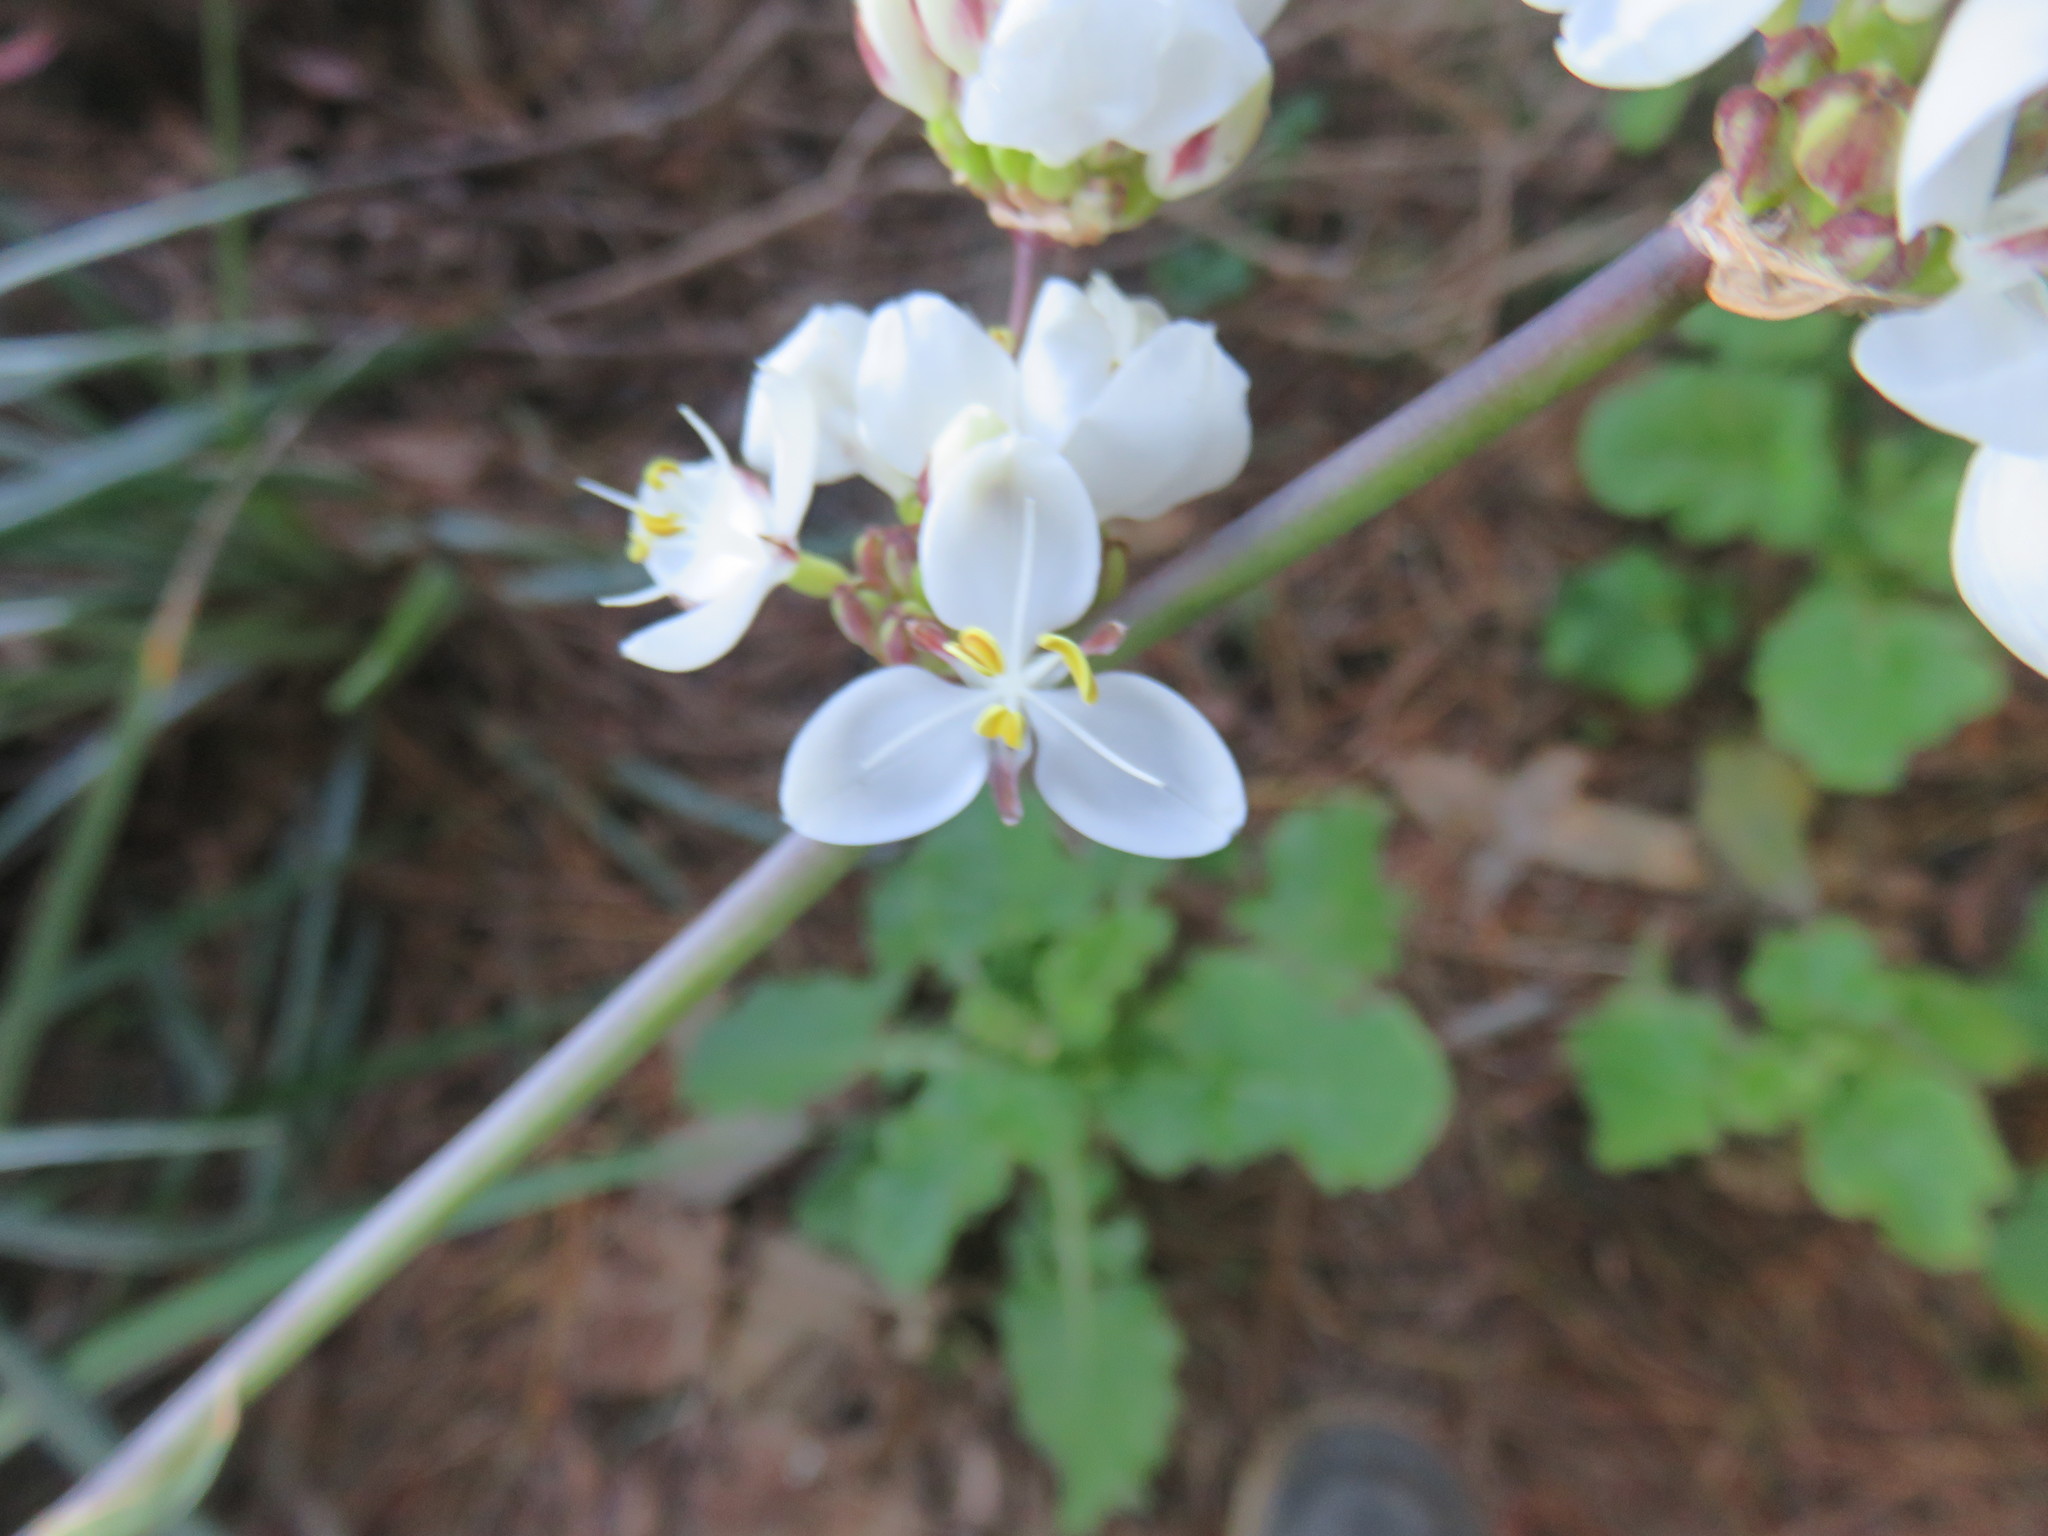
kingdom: Plantae
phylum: Tracheophyta
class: Liliopsida
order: Asparagales
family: Iridaceae
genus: Libertia
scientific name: Libertia chilensis
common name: Satin flower
